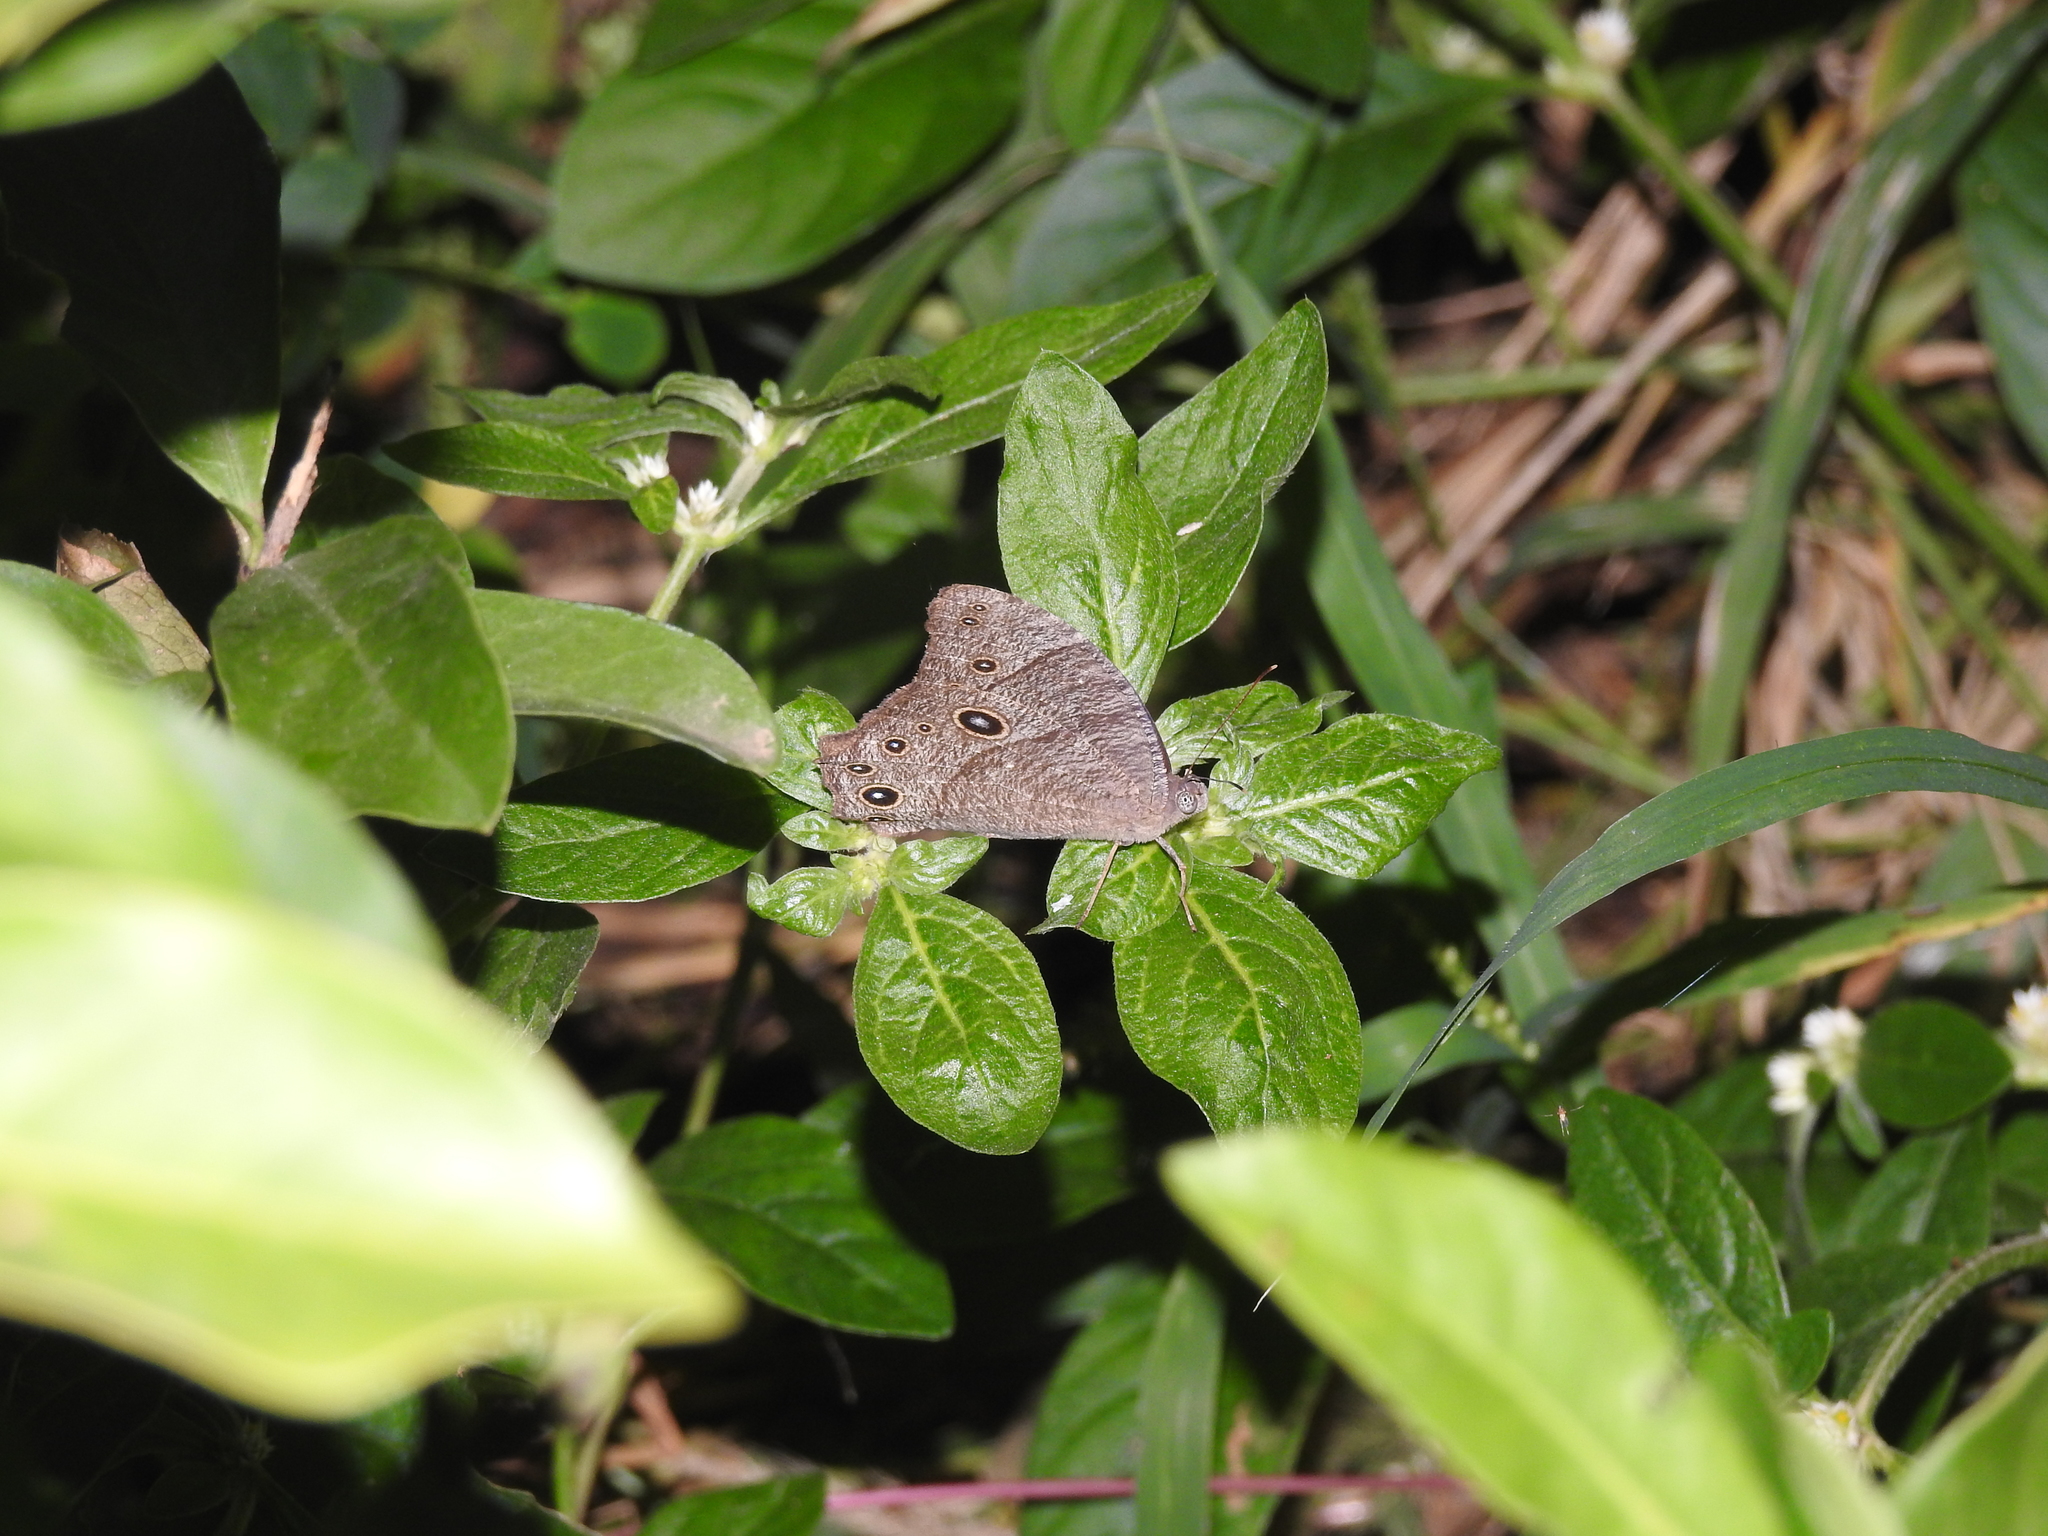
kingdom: Animalia
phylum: Arthropoda
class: Insecta
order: Lepidoptera
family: Nymphalidae
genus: Melanitis
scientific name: Melanitis leda
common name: Twilight brown
